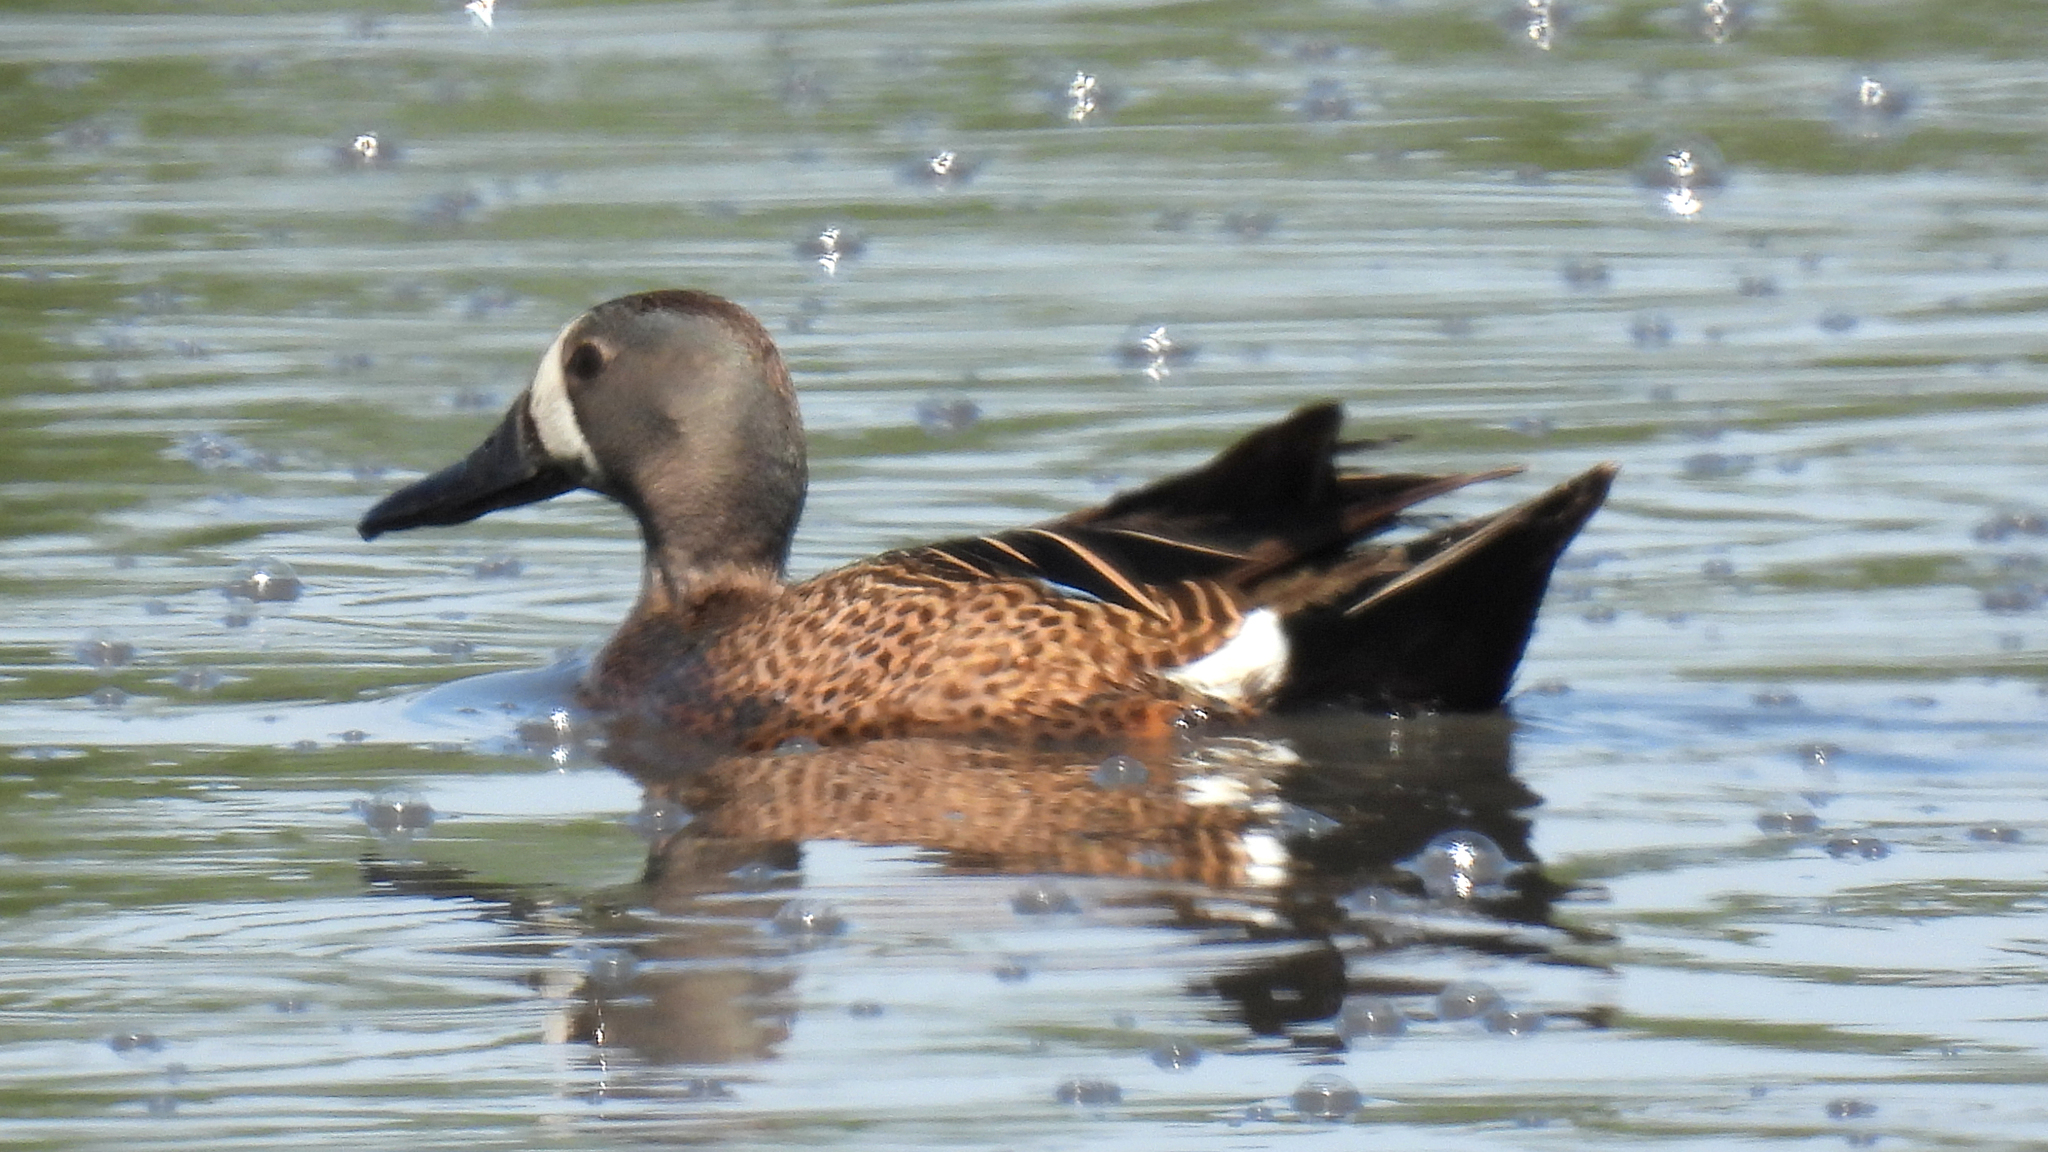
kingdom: Animalia
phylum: Chordata
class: Aves
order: Anseriformes
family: Anatidae
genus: Spatula
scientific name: Spatula discors
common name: Blue-winged teal
